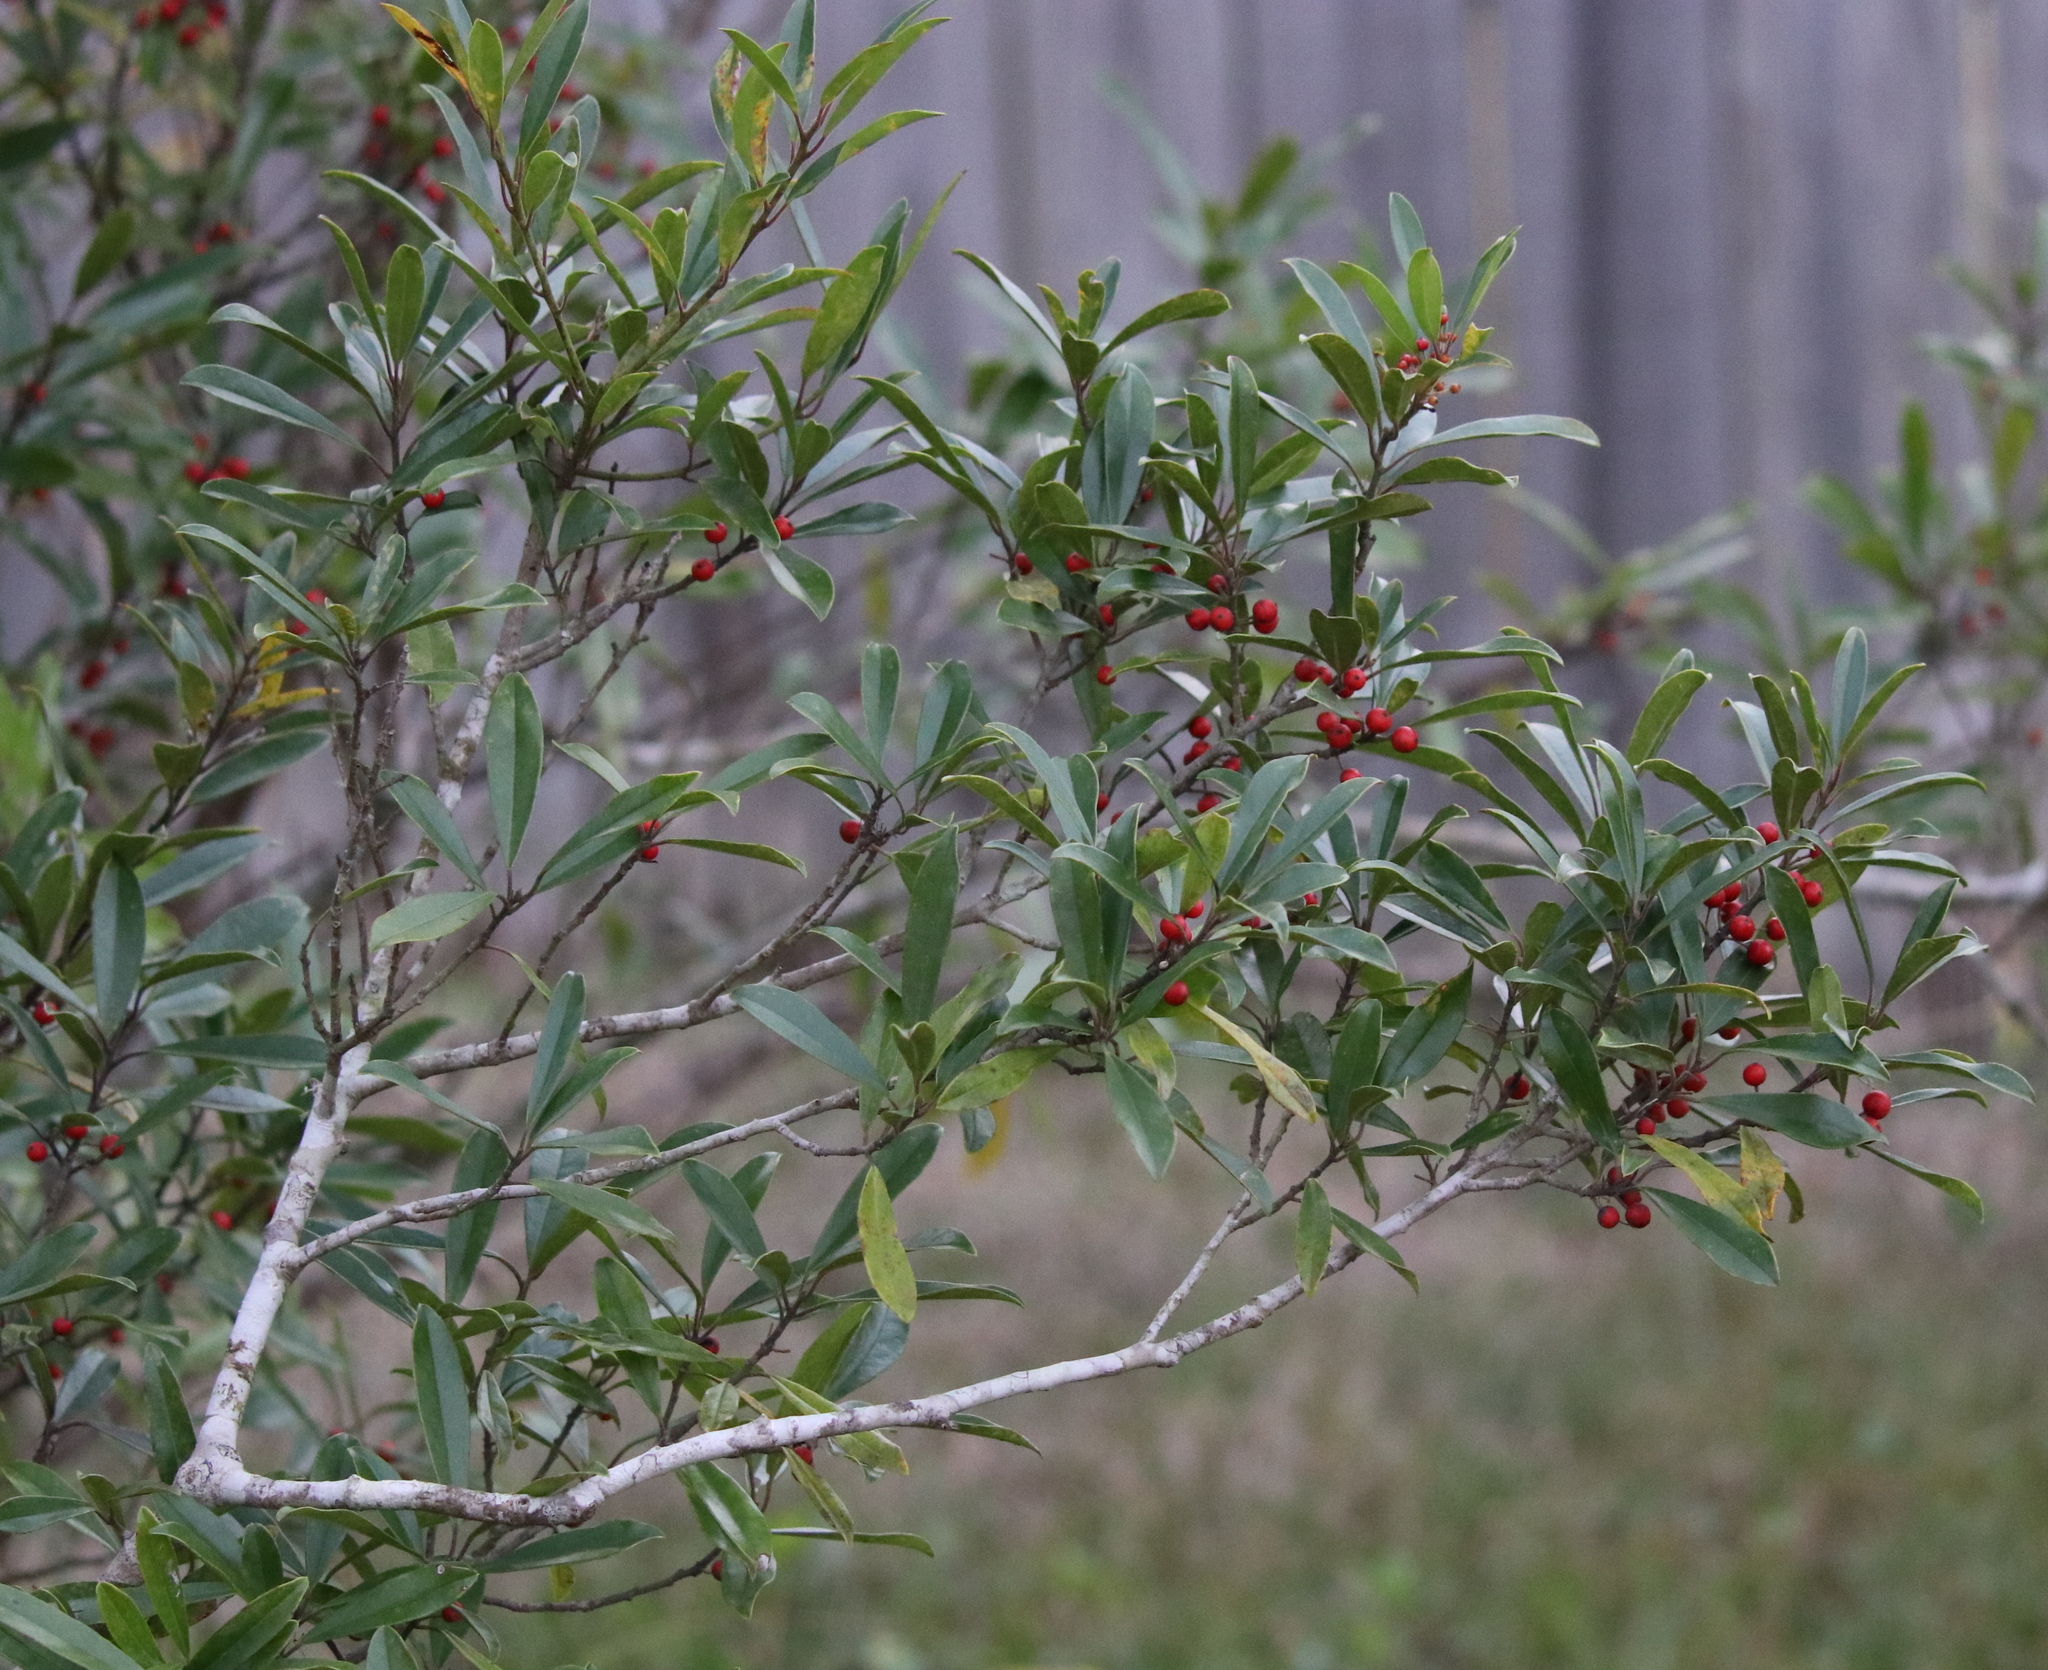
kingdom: Plantae
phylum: Tracheophyta
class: Magnoliopsida
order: Aquifoliales
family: Aquifoliaceae
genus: Ilex
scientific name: Ilex cassine
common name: Dahoon
